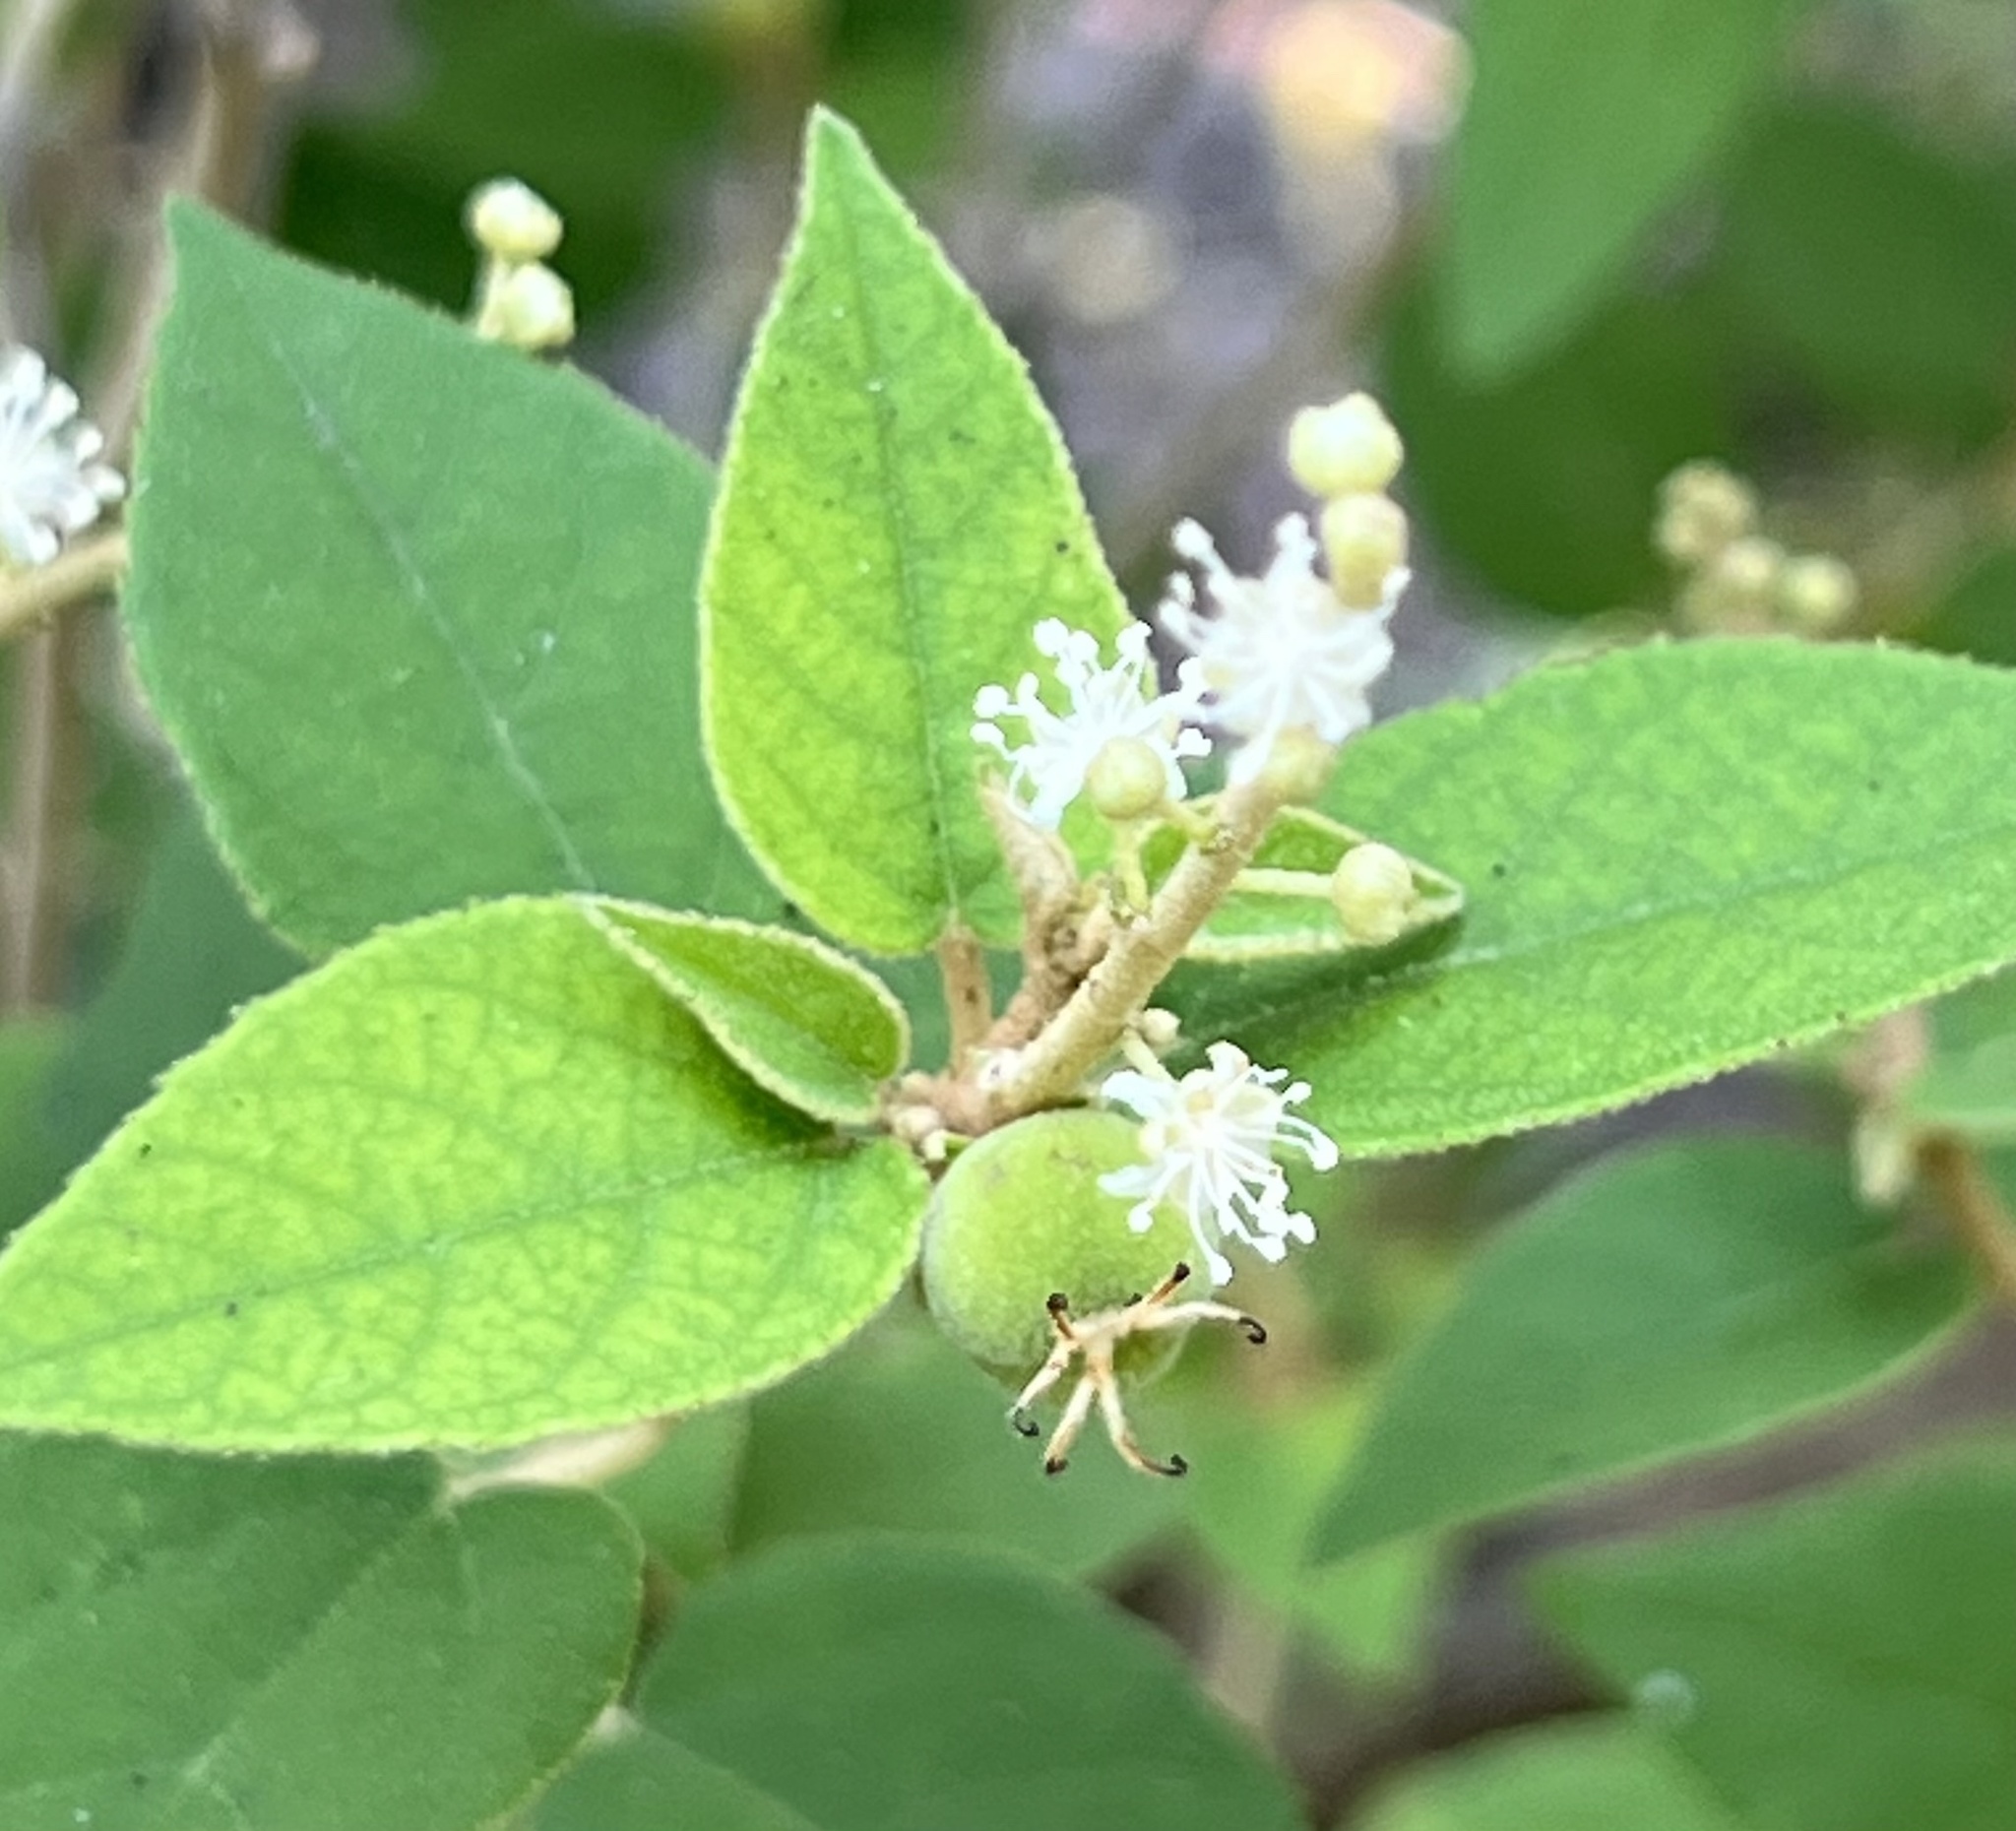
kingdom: Plantae
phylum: Tracheophyta
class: Magnoliopsida
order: Malpighiales
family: Euphorbiaceae
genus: Croton
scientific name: Croton fruticulosus
